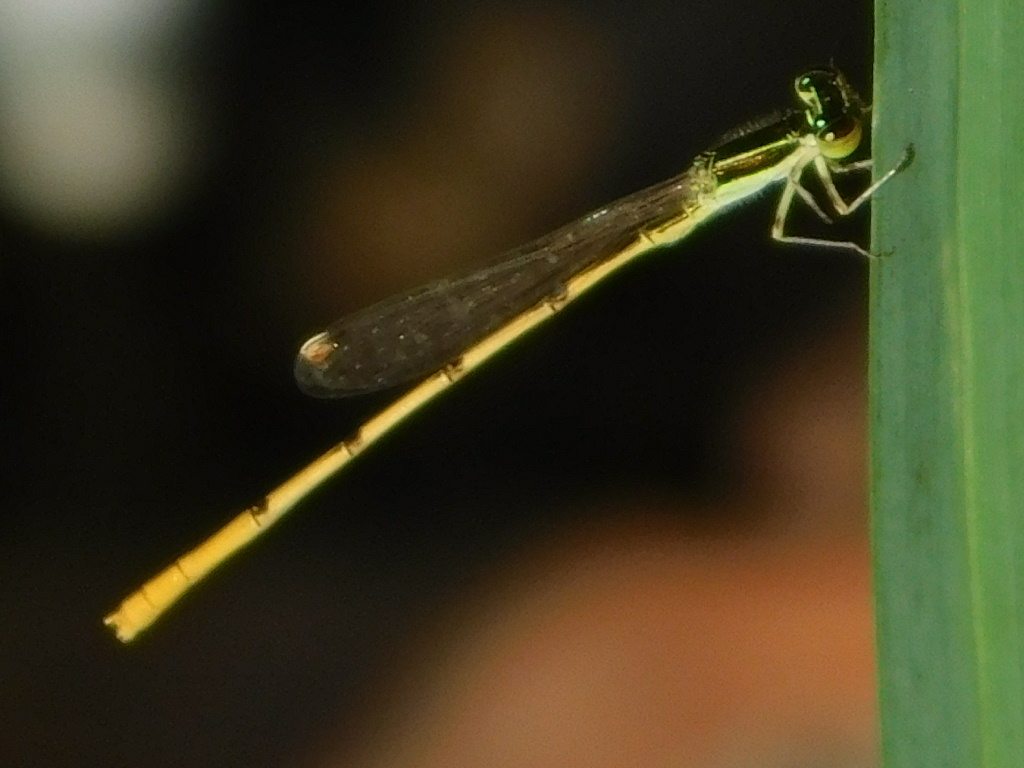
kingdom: Animalia
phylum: Arthropoda
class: Insecta
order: Odonata
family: Coenagrionidae
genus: Ischnura
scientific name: Ischnura hastata
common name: Citrine forktail
